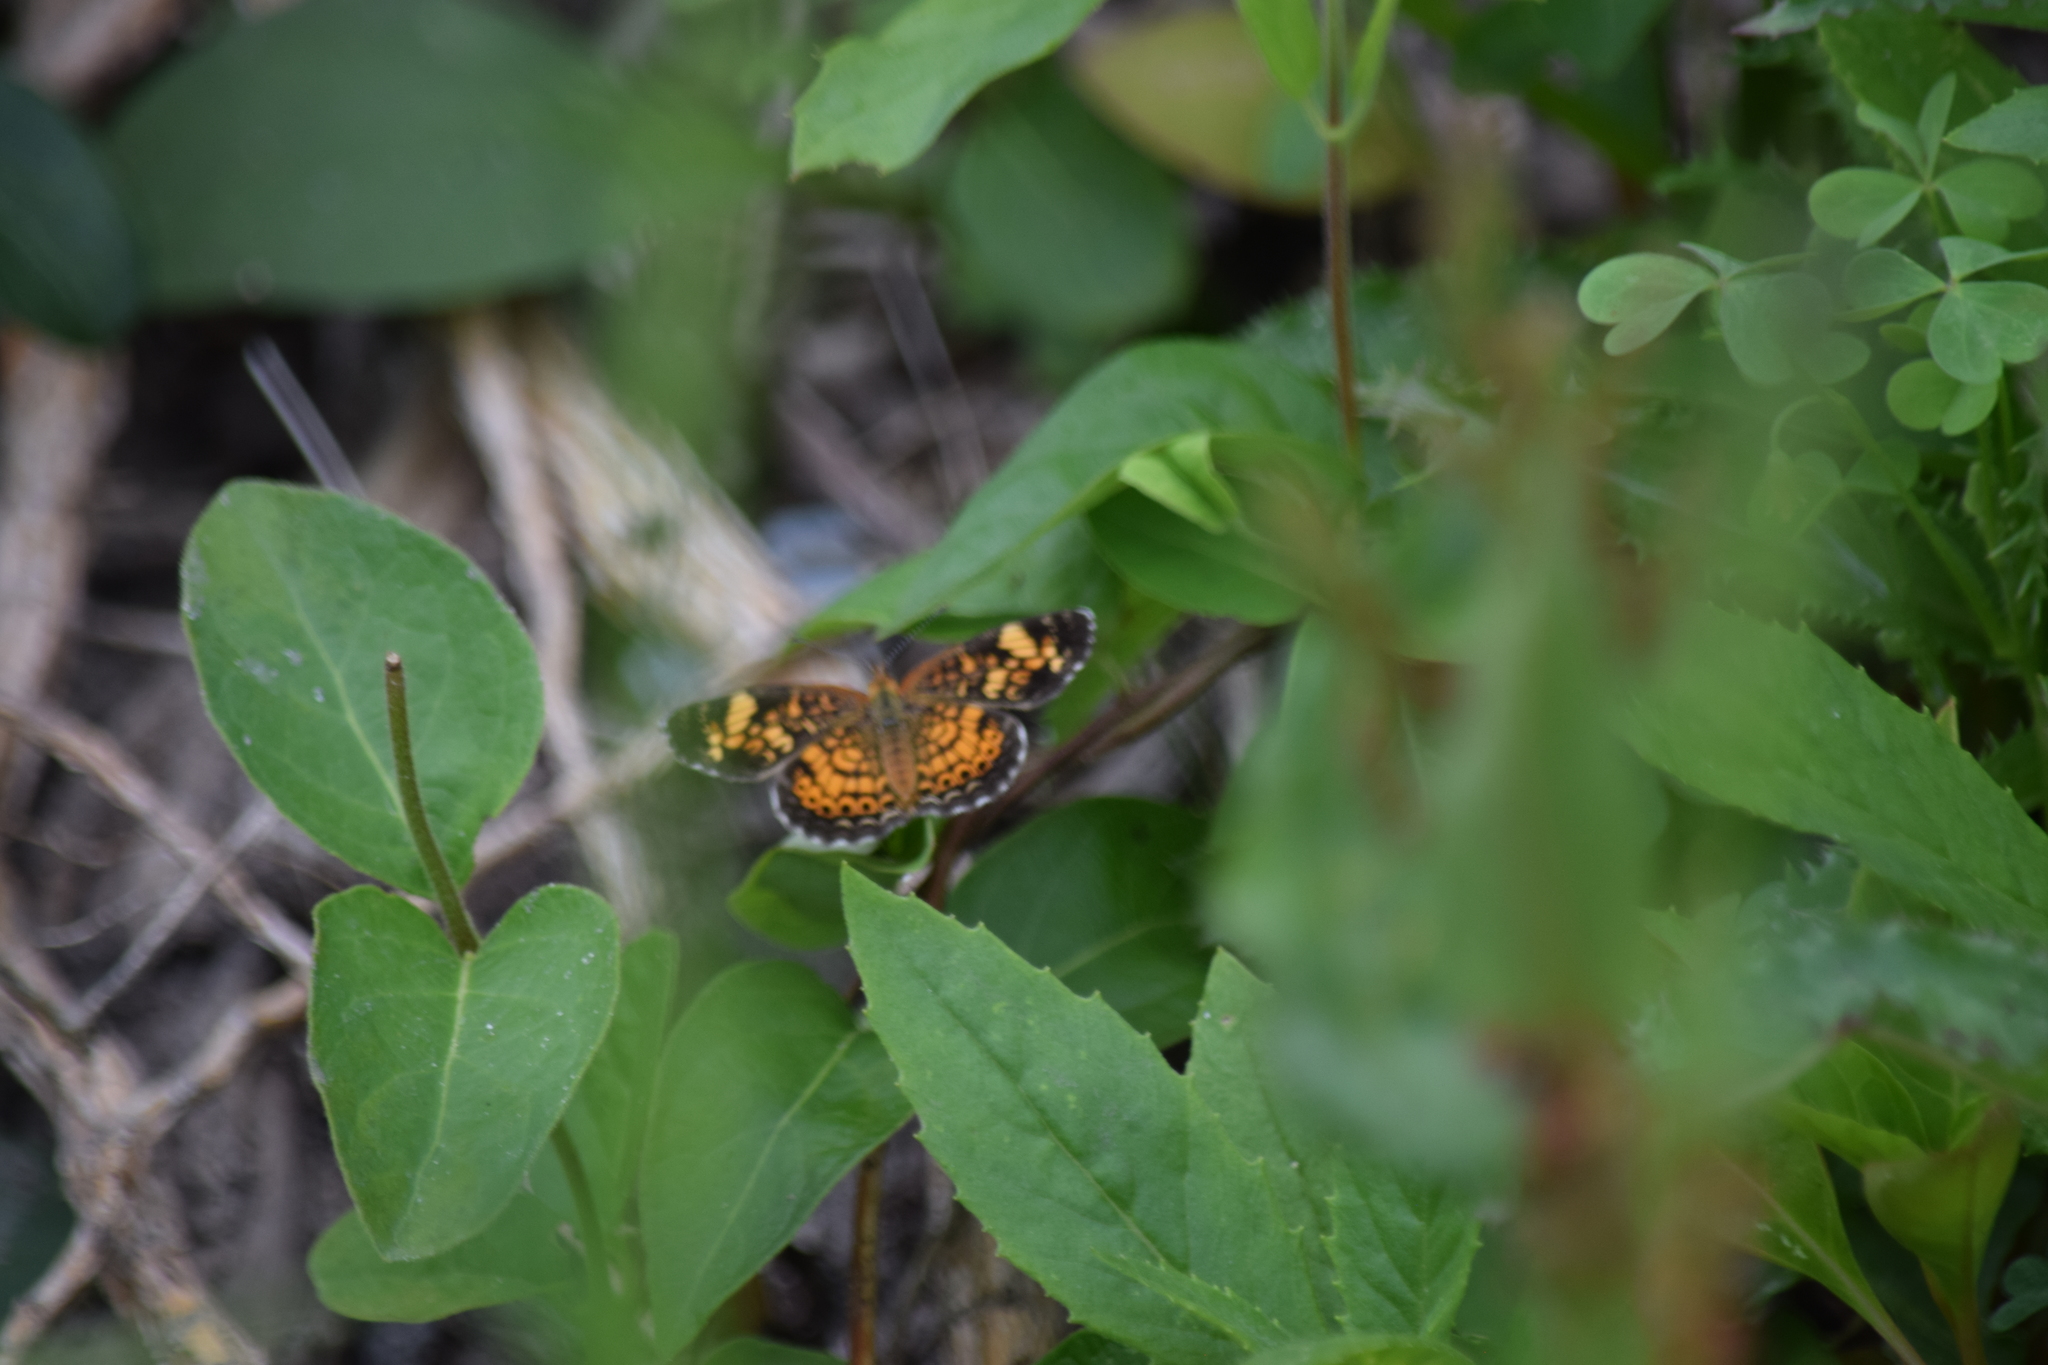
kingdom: Animalia
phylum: Arthropoda
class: Insecta
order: Lepidoptera
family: Nymphalidae
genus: Phyciodes
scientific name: Phyciodes tharos
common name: Pearl crescent
